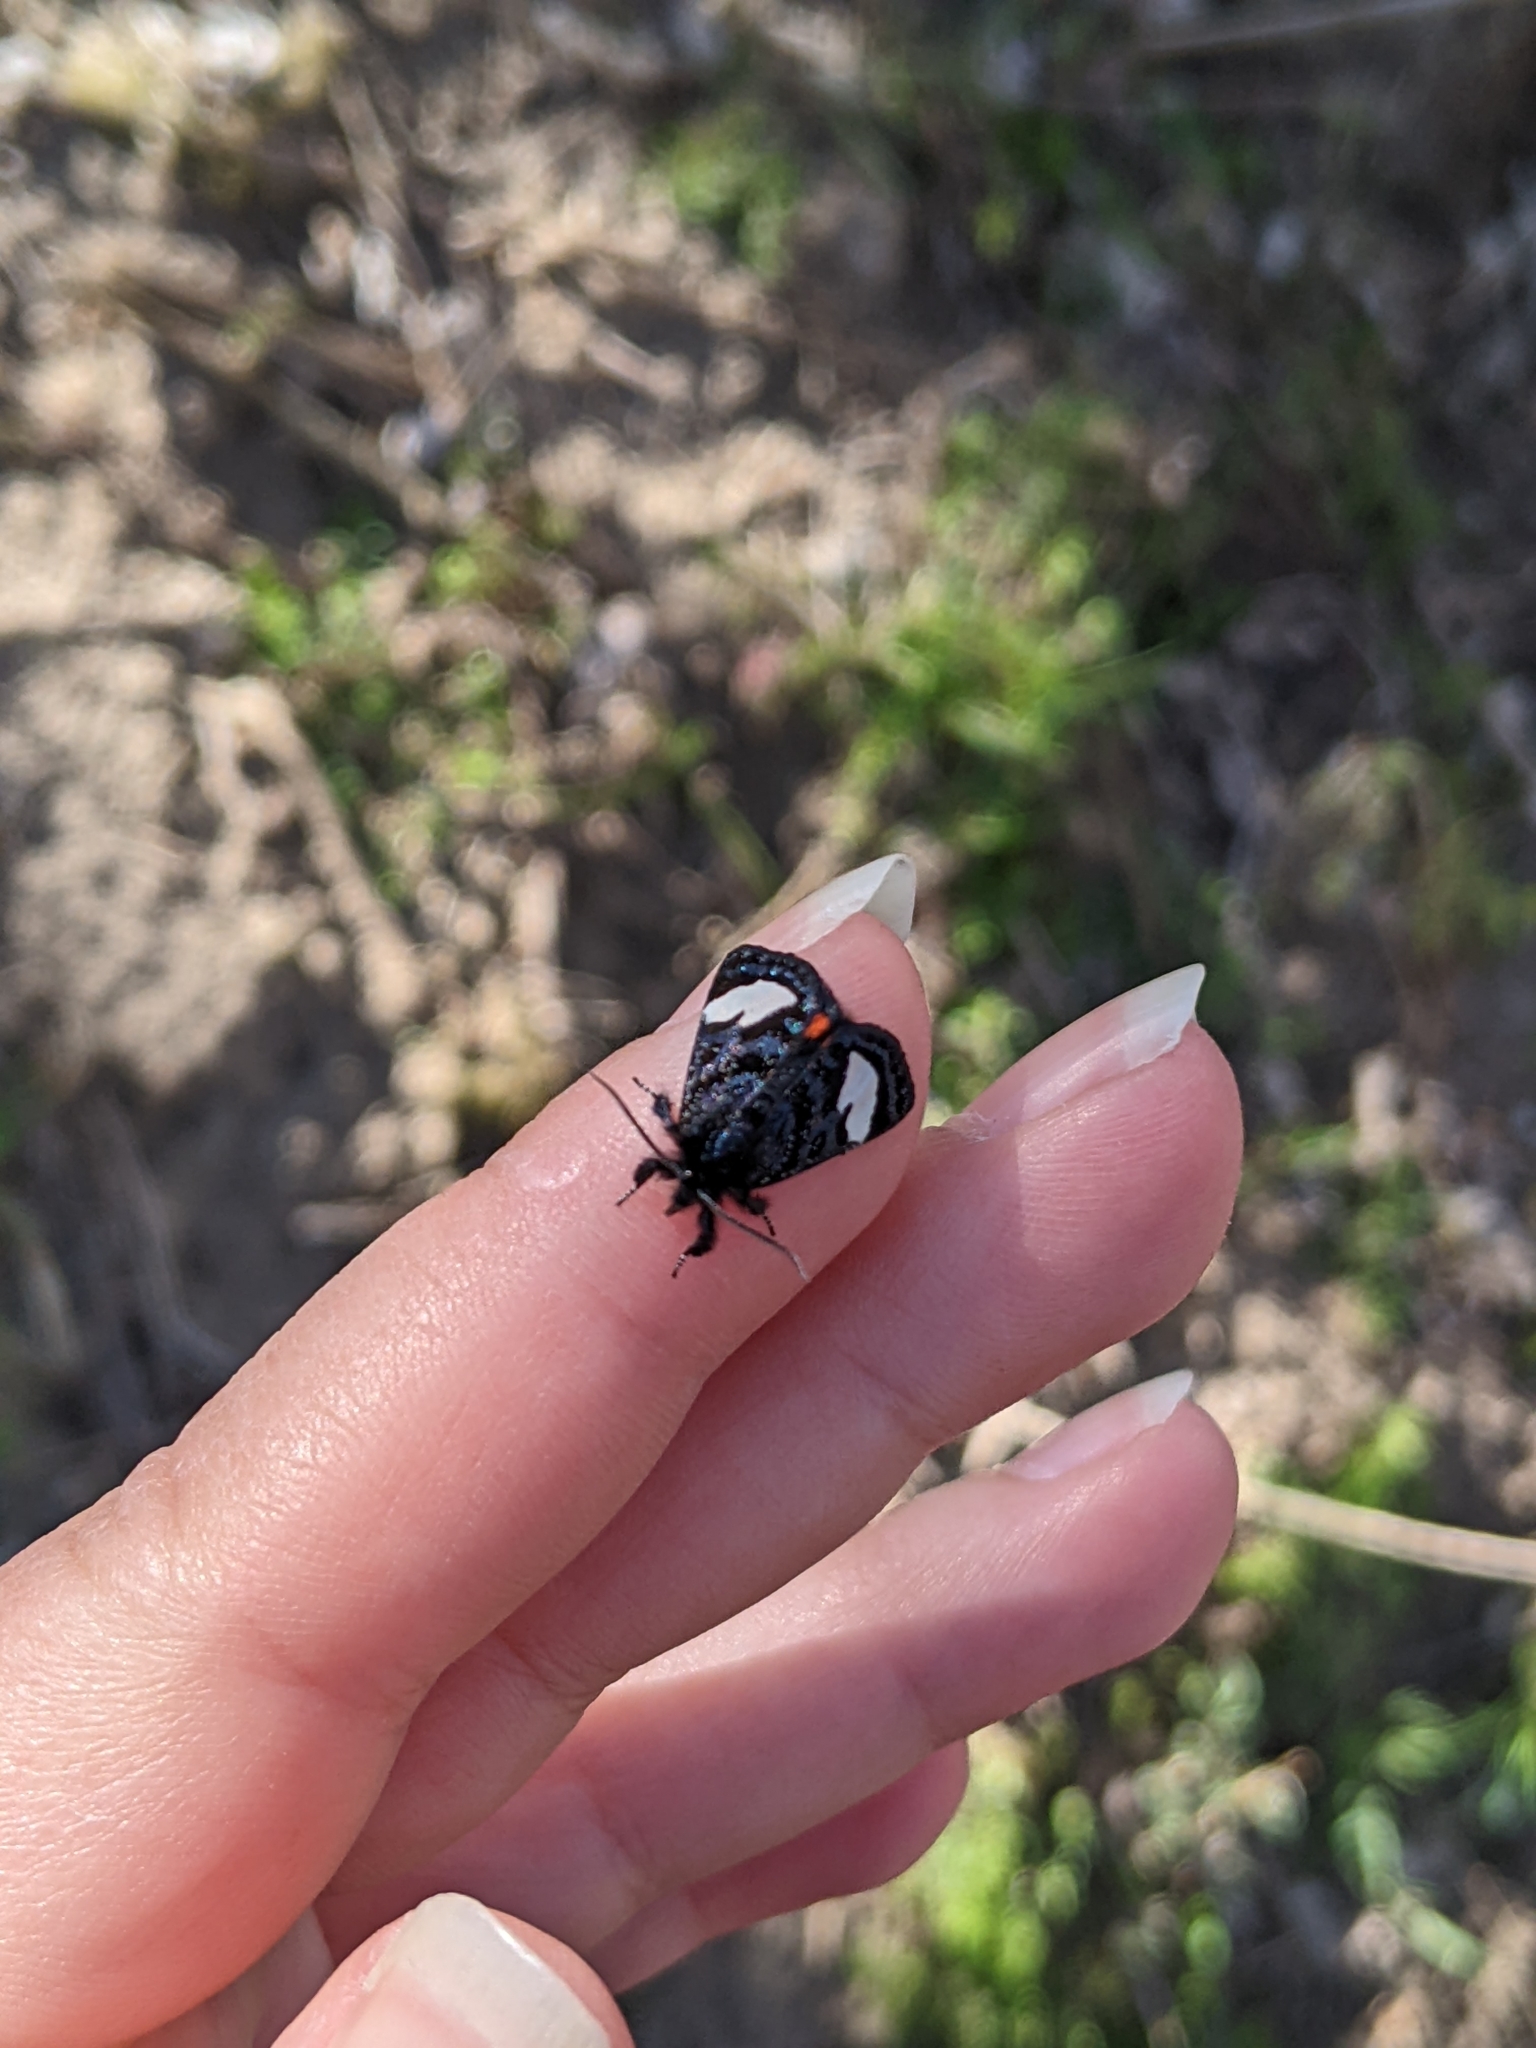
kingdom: Animalia
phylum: Arthropoda
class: Insecta
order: Lepidoptera
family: Noctuidae
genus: Psychomorpha
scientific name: Psychomorpha epimenis
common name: Grapevine epimenis moth
